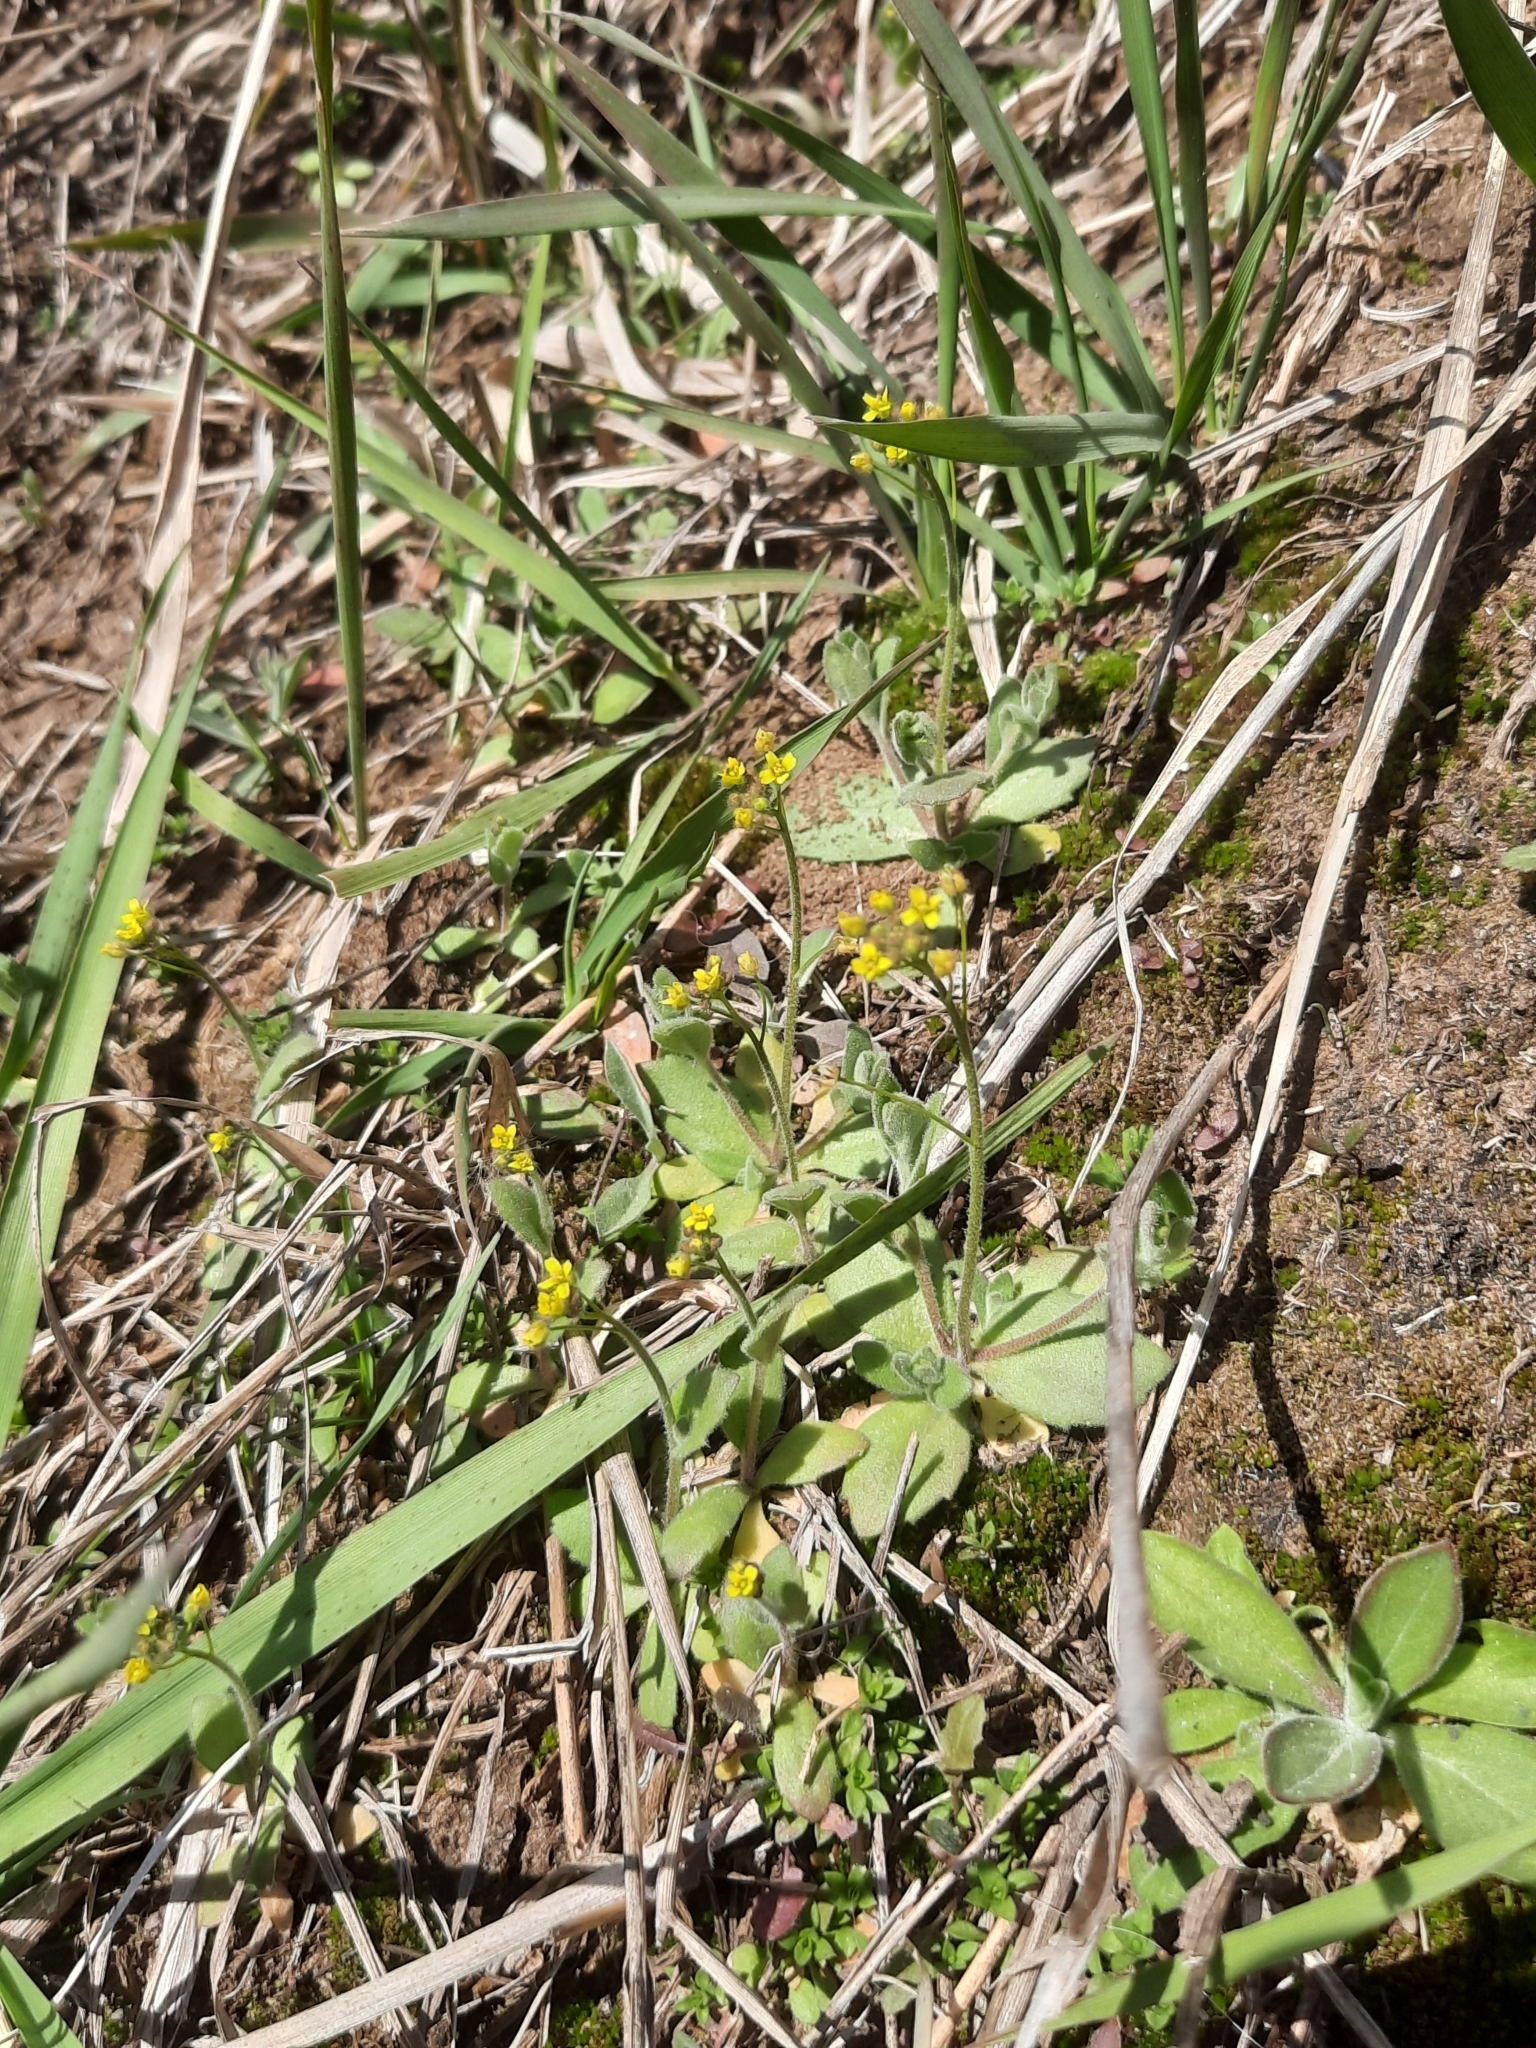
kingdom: Plantae
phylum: Tracheophyta
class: Magnoliopsida
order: Brassicales
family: Brassicaceae
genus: Draba
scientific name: Draba nemorosa
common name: Wood whitlow-grass
